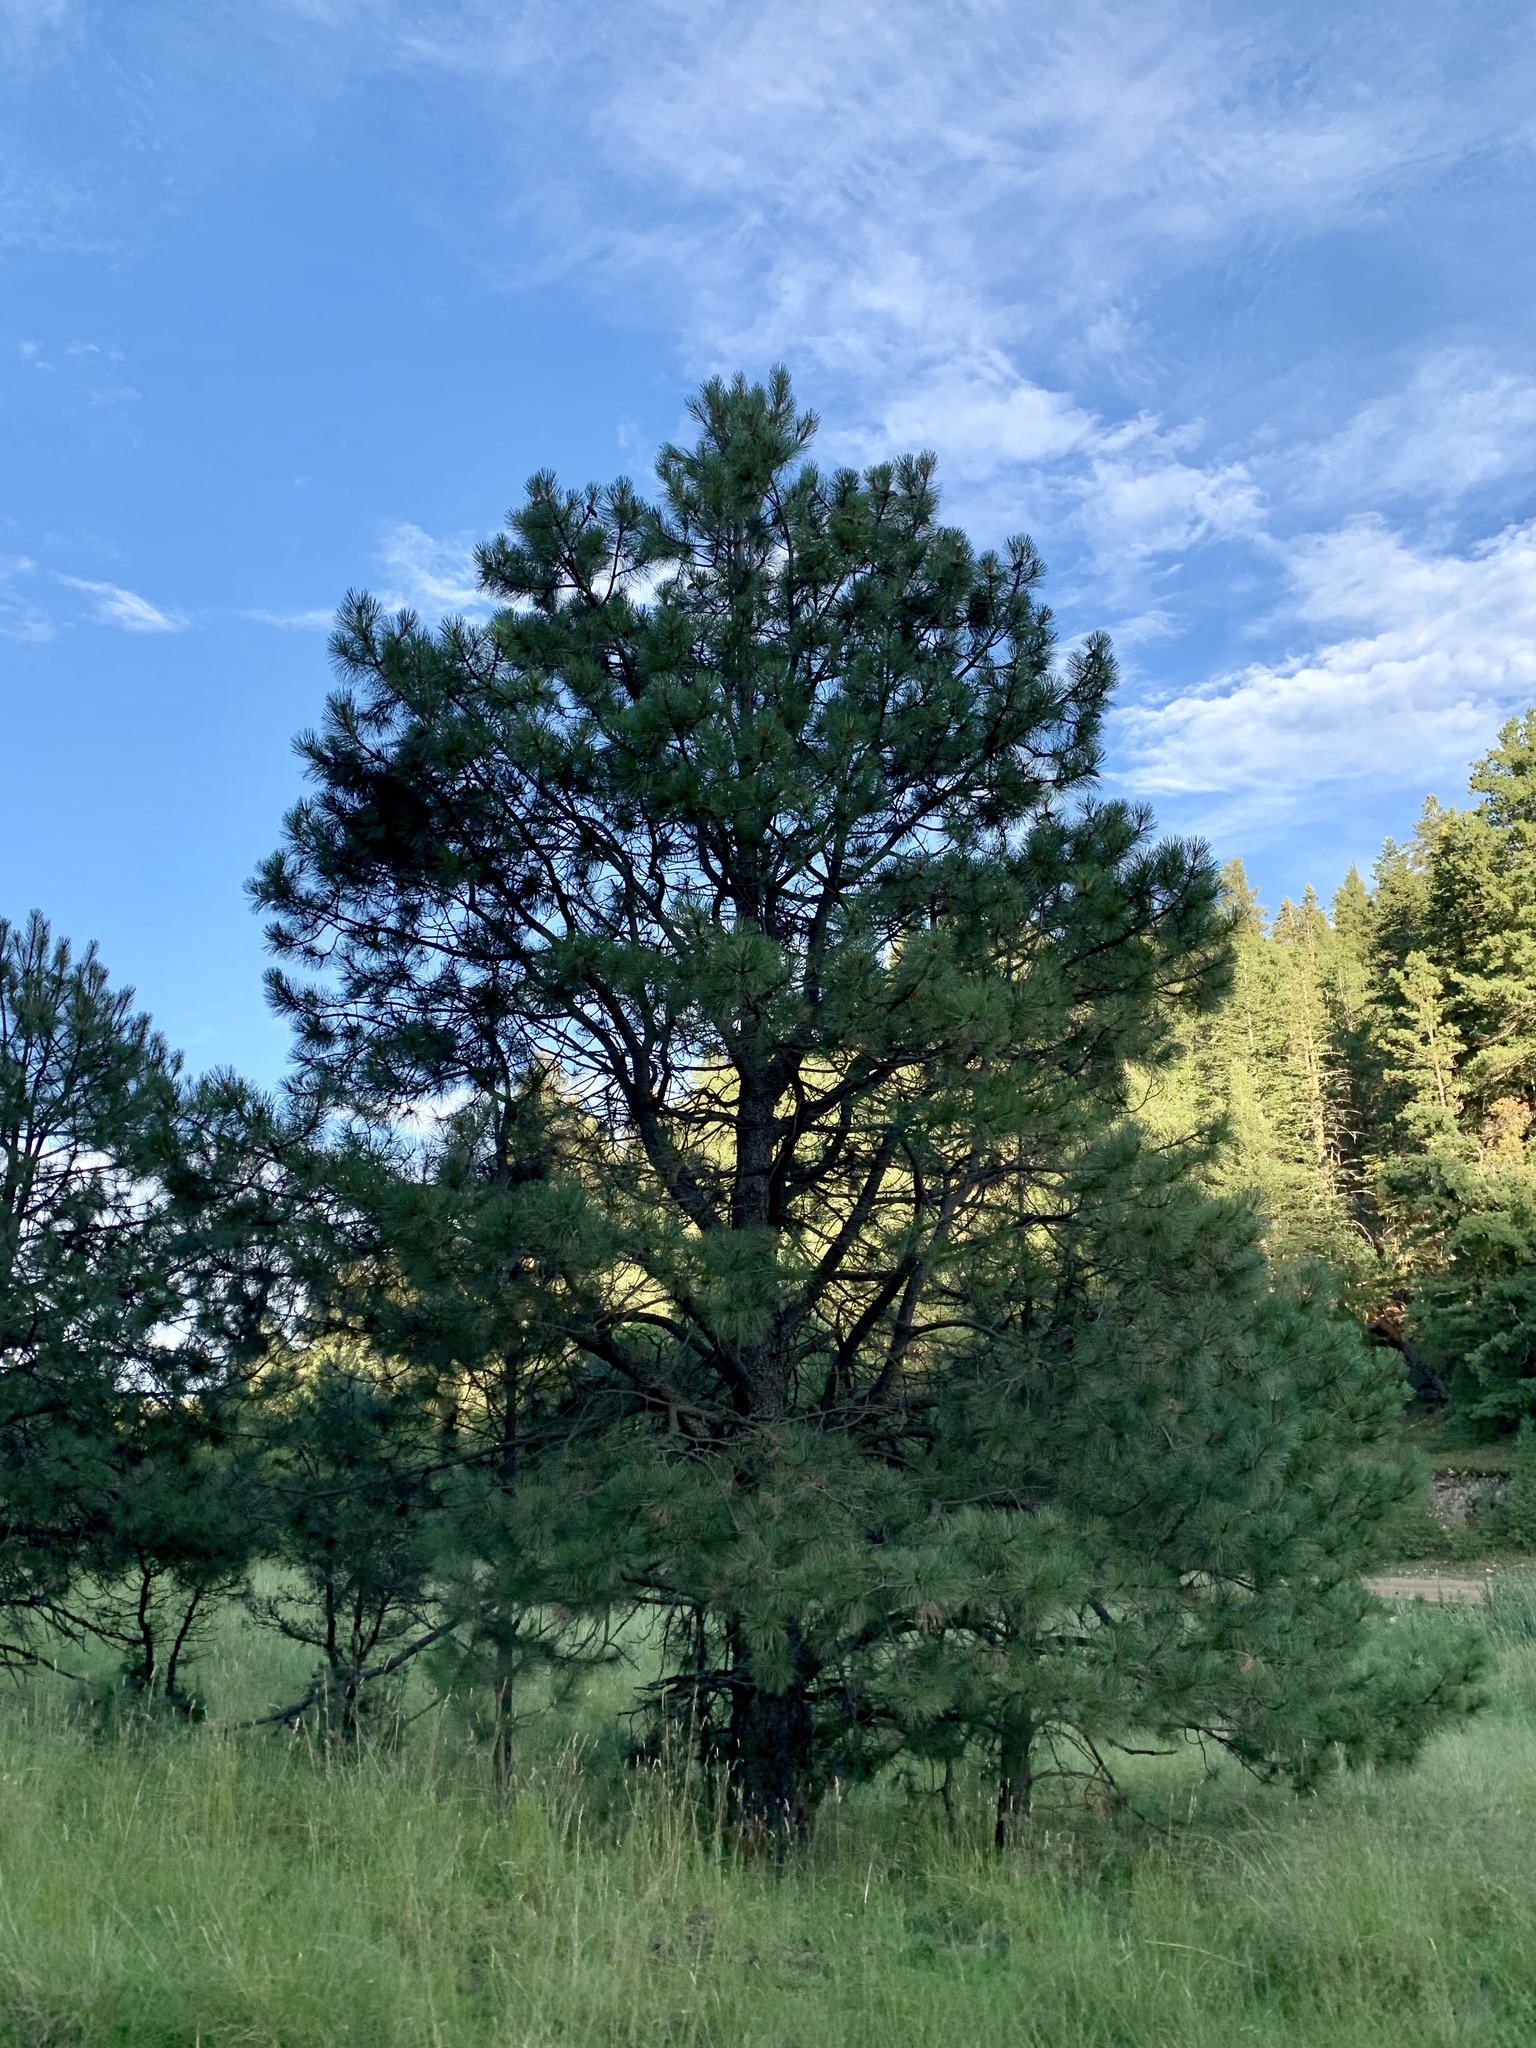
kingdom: Plantae
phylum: Tracheophyta
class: Pinopsida
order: Pinales
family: Pinaceae
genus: Pinus
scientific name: Pinus ponderosa
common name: Western yellow-pine
